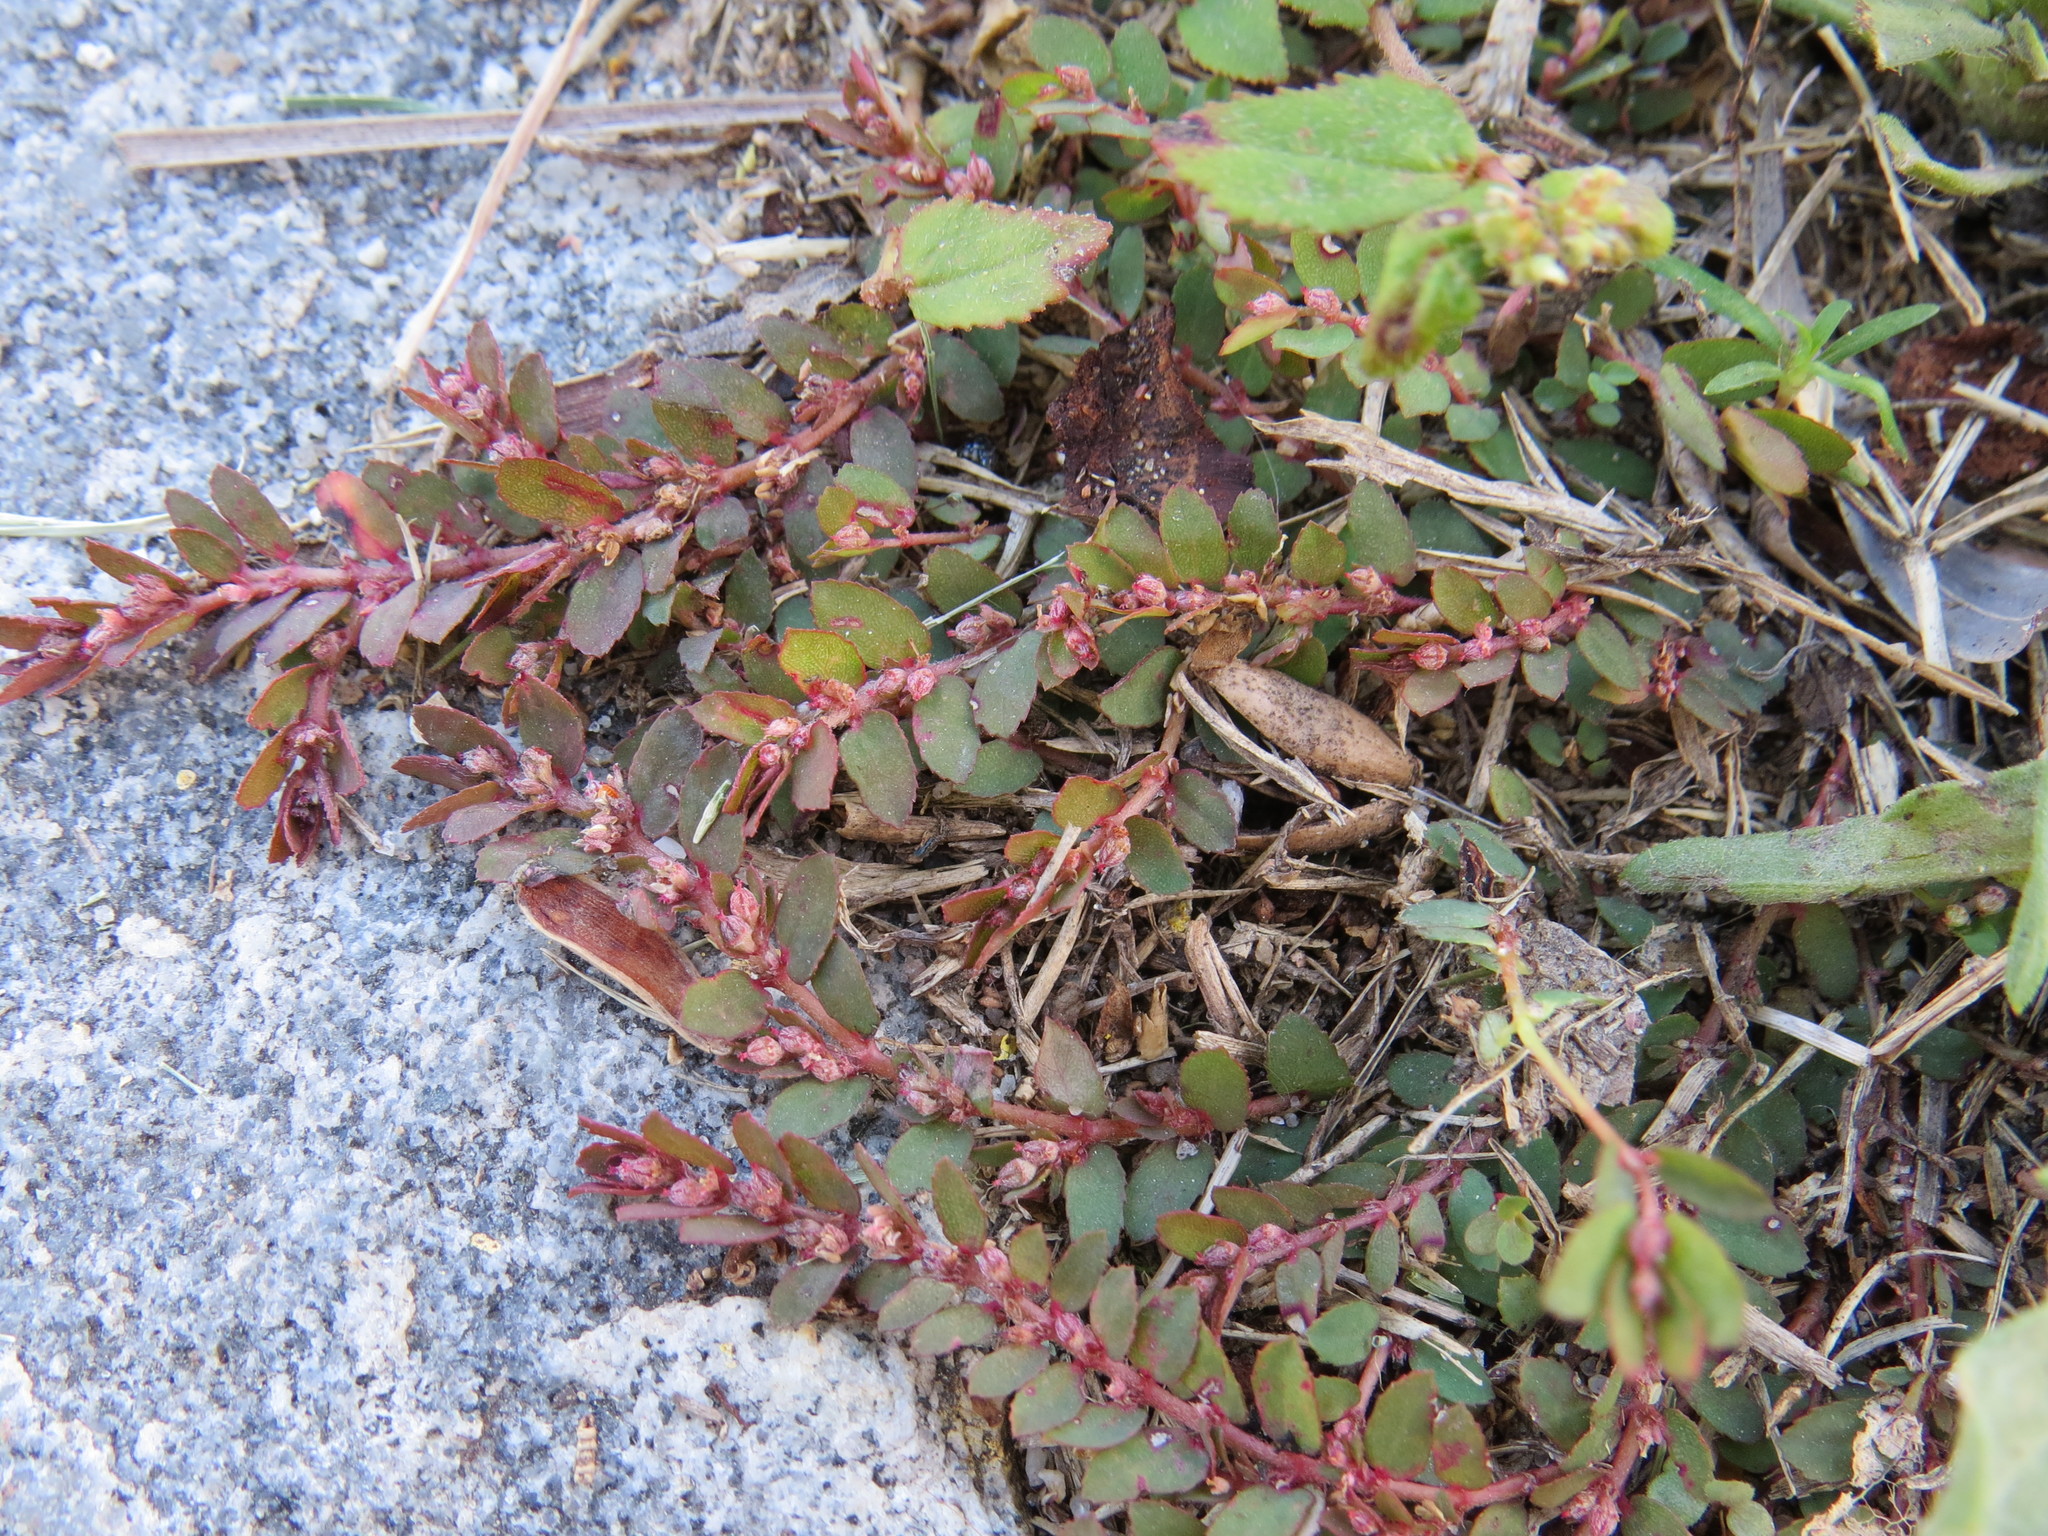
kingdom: Plantae
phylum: Tracheophyta
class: Magnoliopsida
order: Malpighiales
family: Euphorbiaceae
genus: Euphorbia
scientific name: Euphorbia thymifolia
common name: Gulf sandmat
